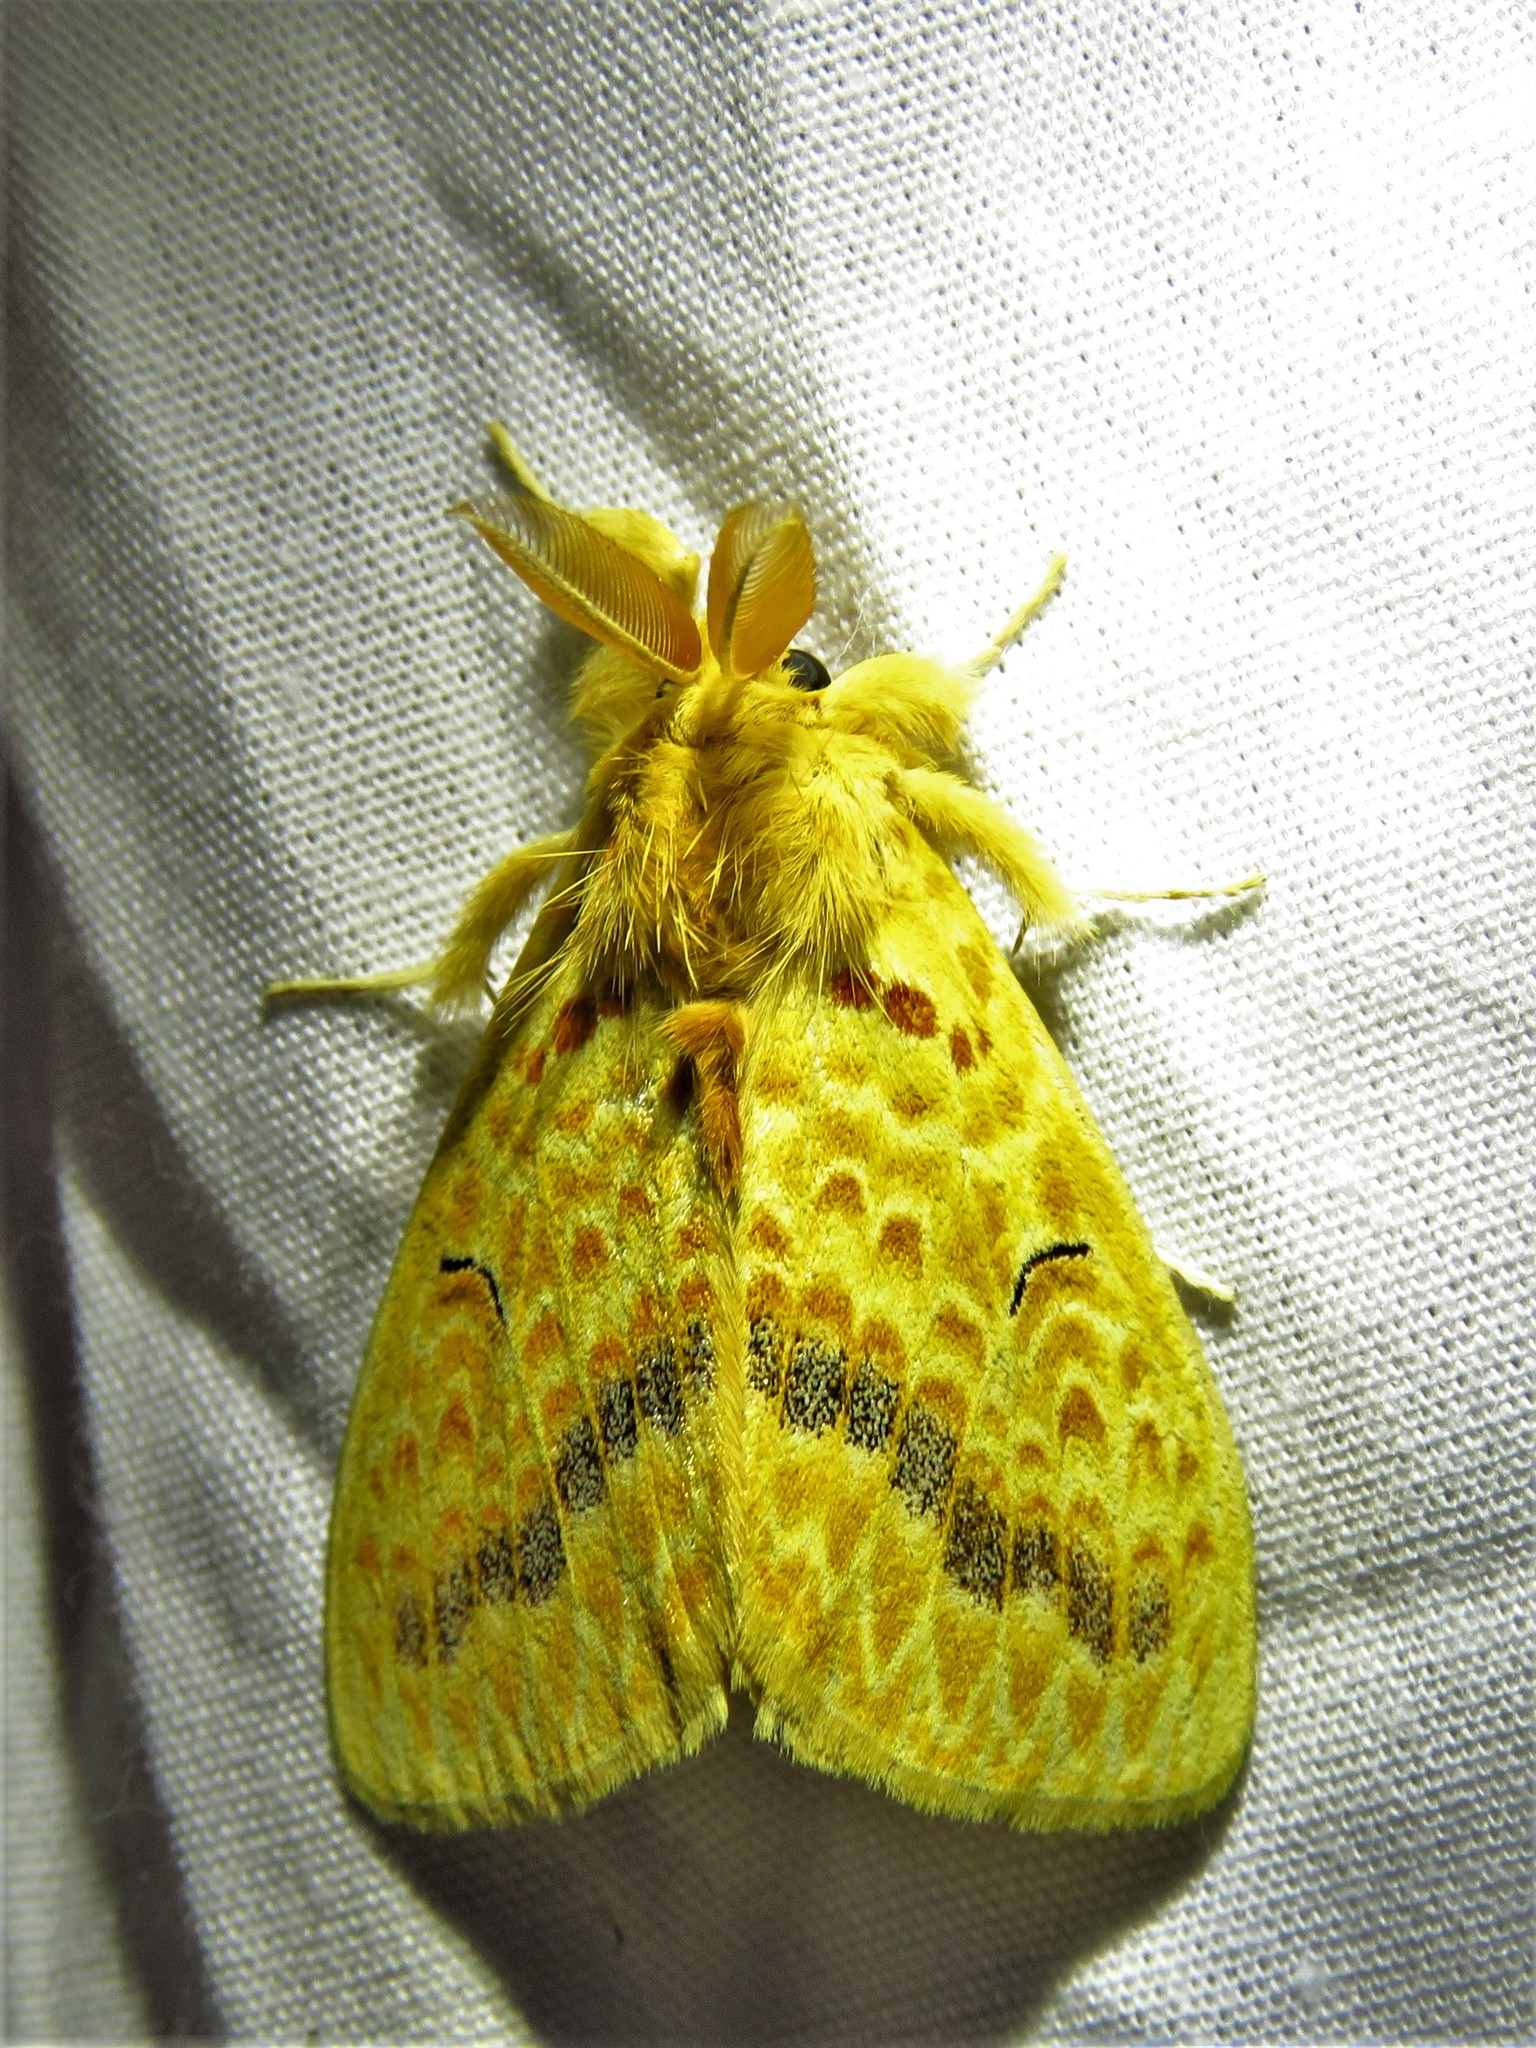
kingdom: Animalia
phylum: Arthropoda
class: Insecta
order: Lepidoptera
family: Erebidae
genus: Mylantria
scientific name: Mylantria xanthospila
